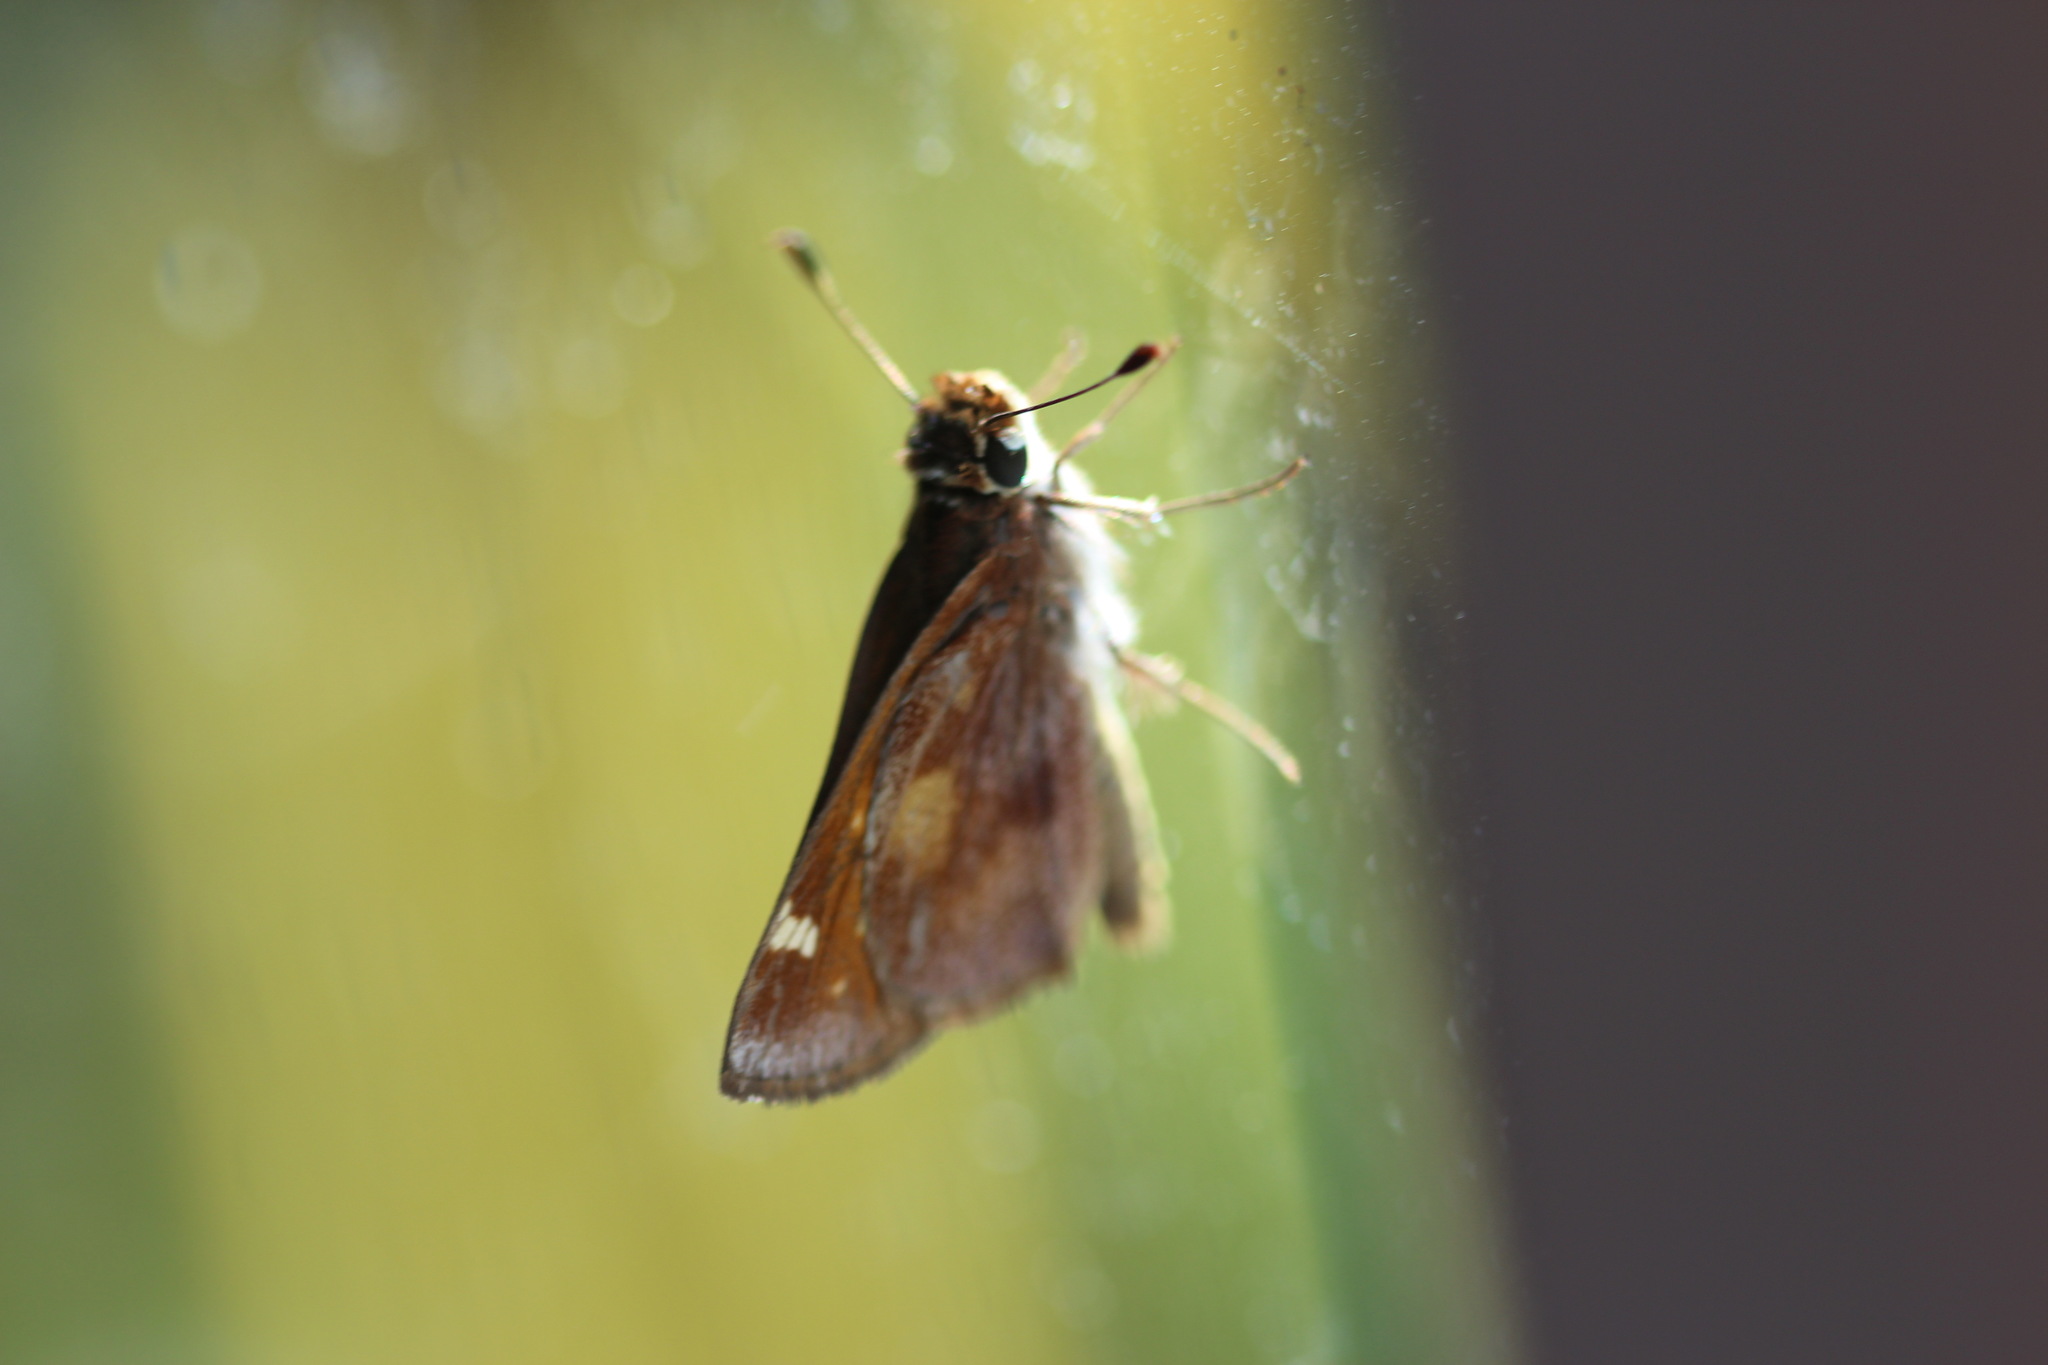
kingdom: Animalia
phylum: Arthropoda
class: Insecta
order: Lepidoptera
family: Hesperiidae
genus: Lon
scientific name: Lon melane
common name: Umber skipper
